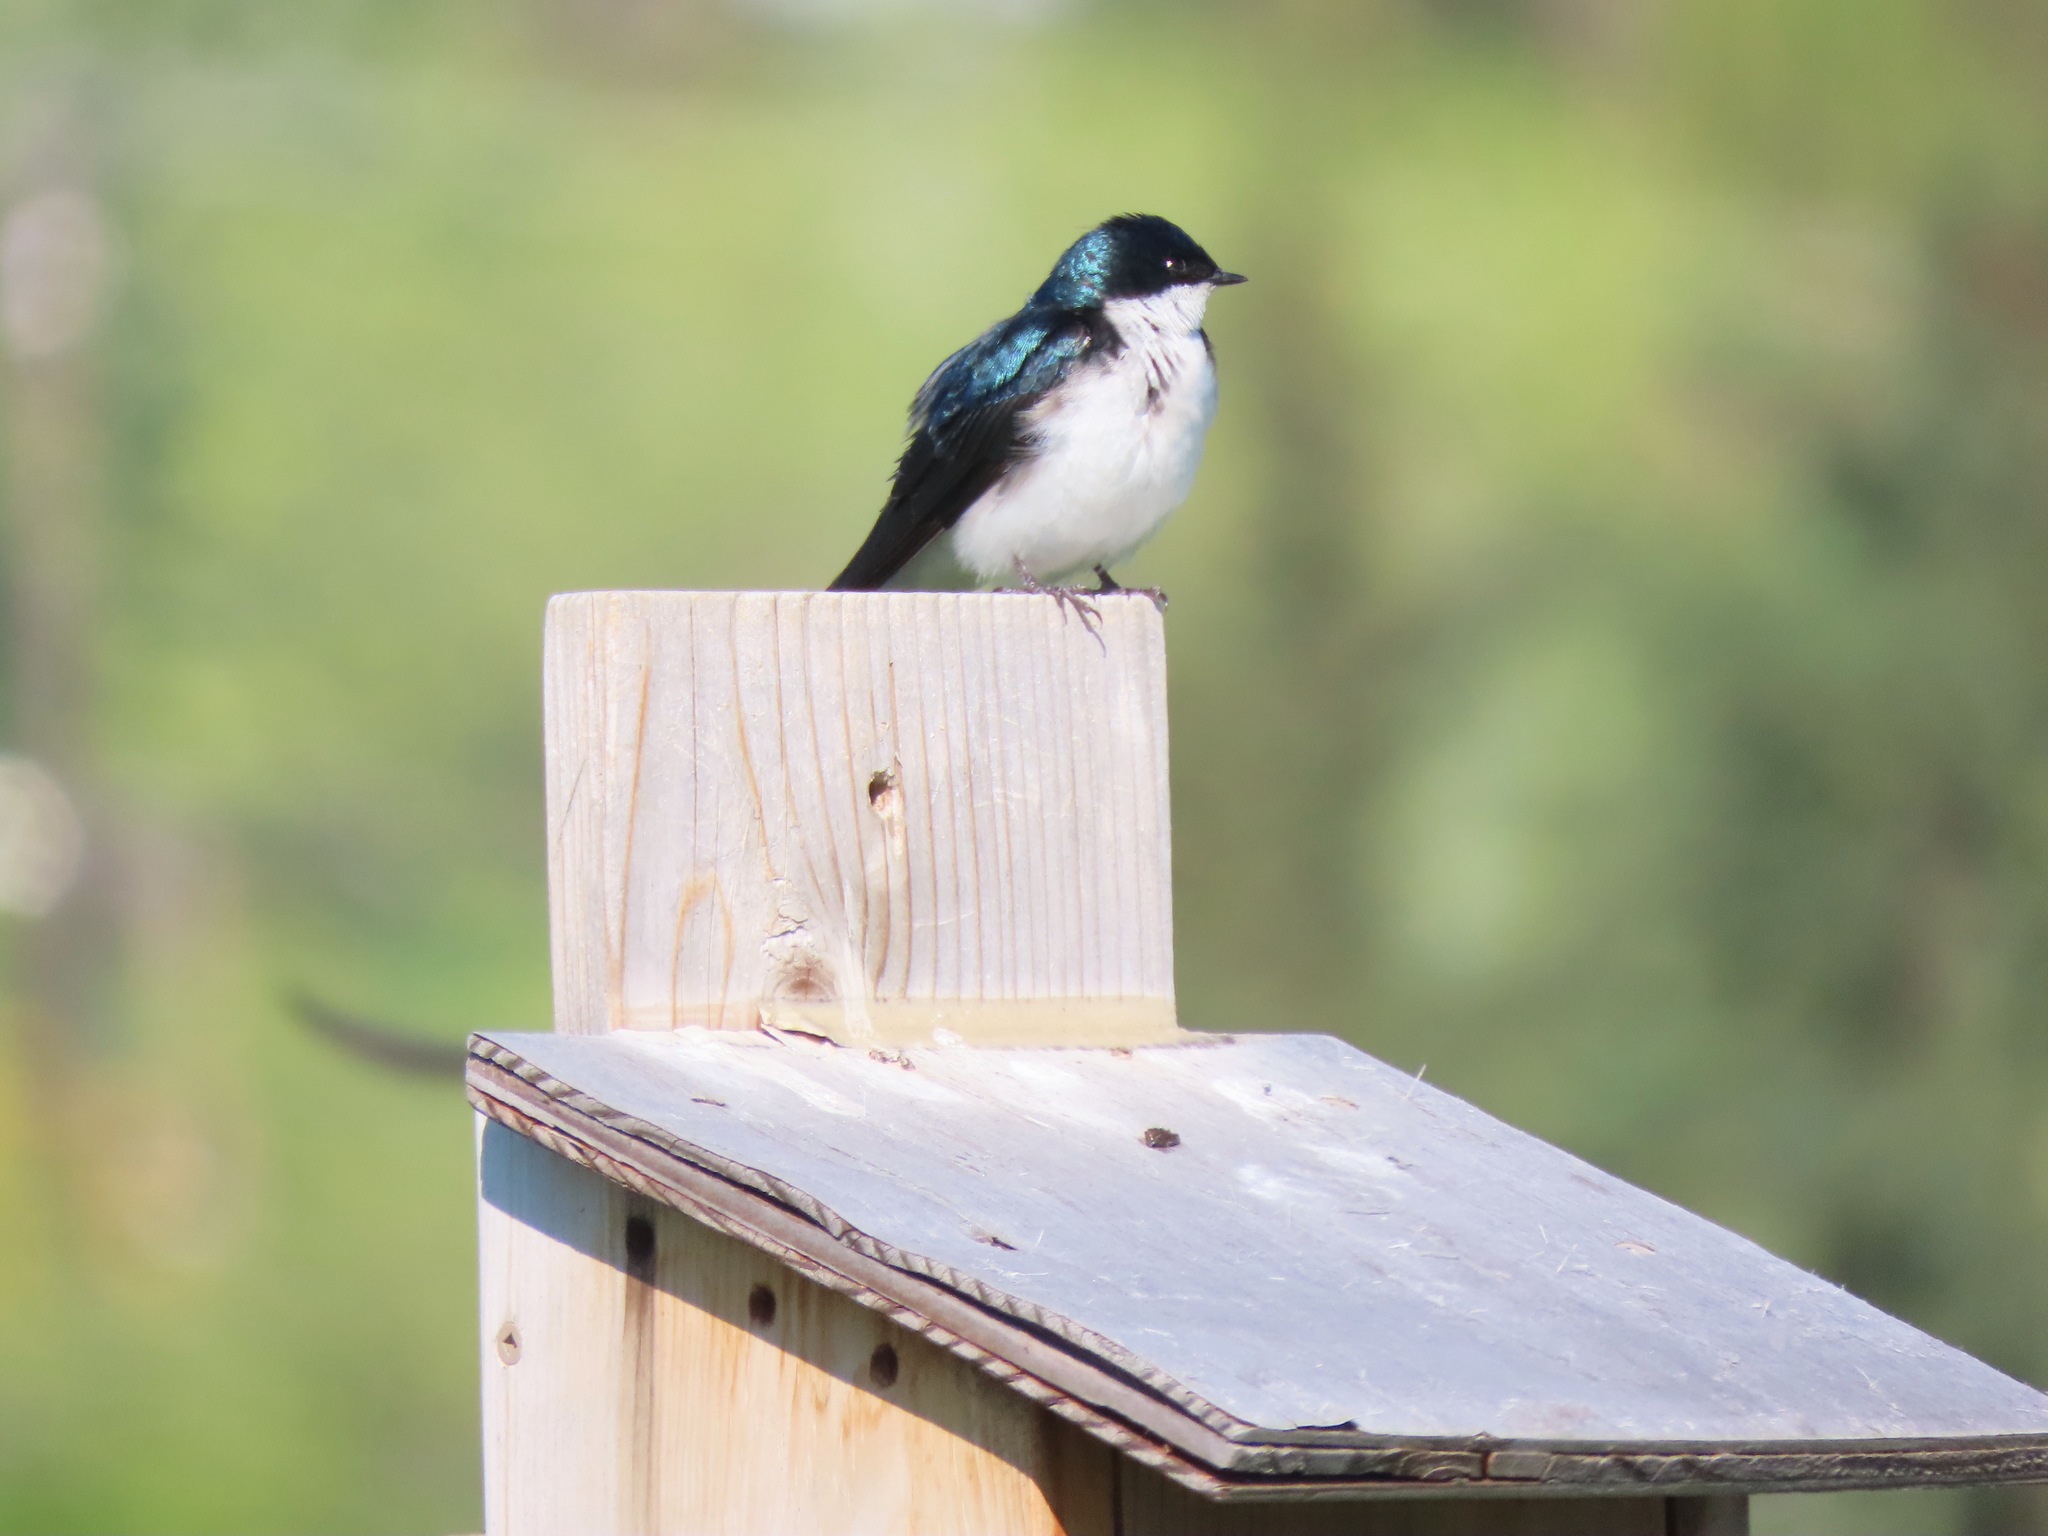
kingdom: Animalia
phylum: Chordata
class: Aves
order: Passeriformes
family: Hirundinidae
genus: Tachycineta
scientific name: Tachycineta bicolor
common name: Tree swallow
